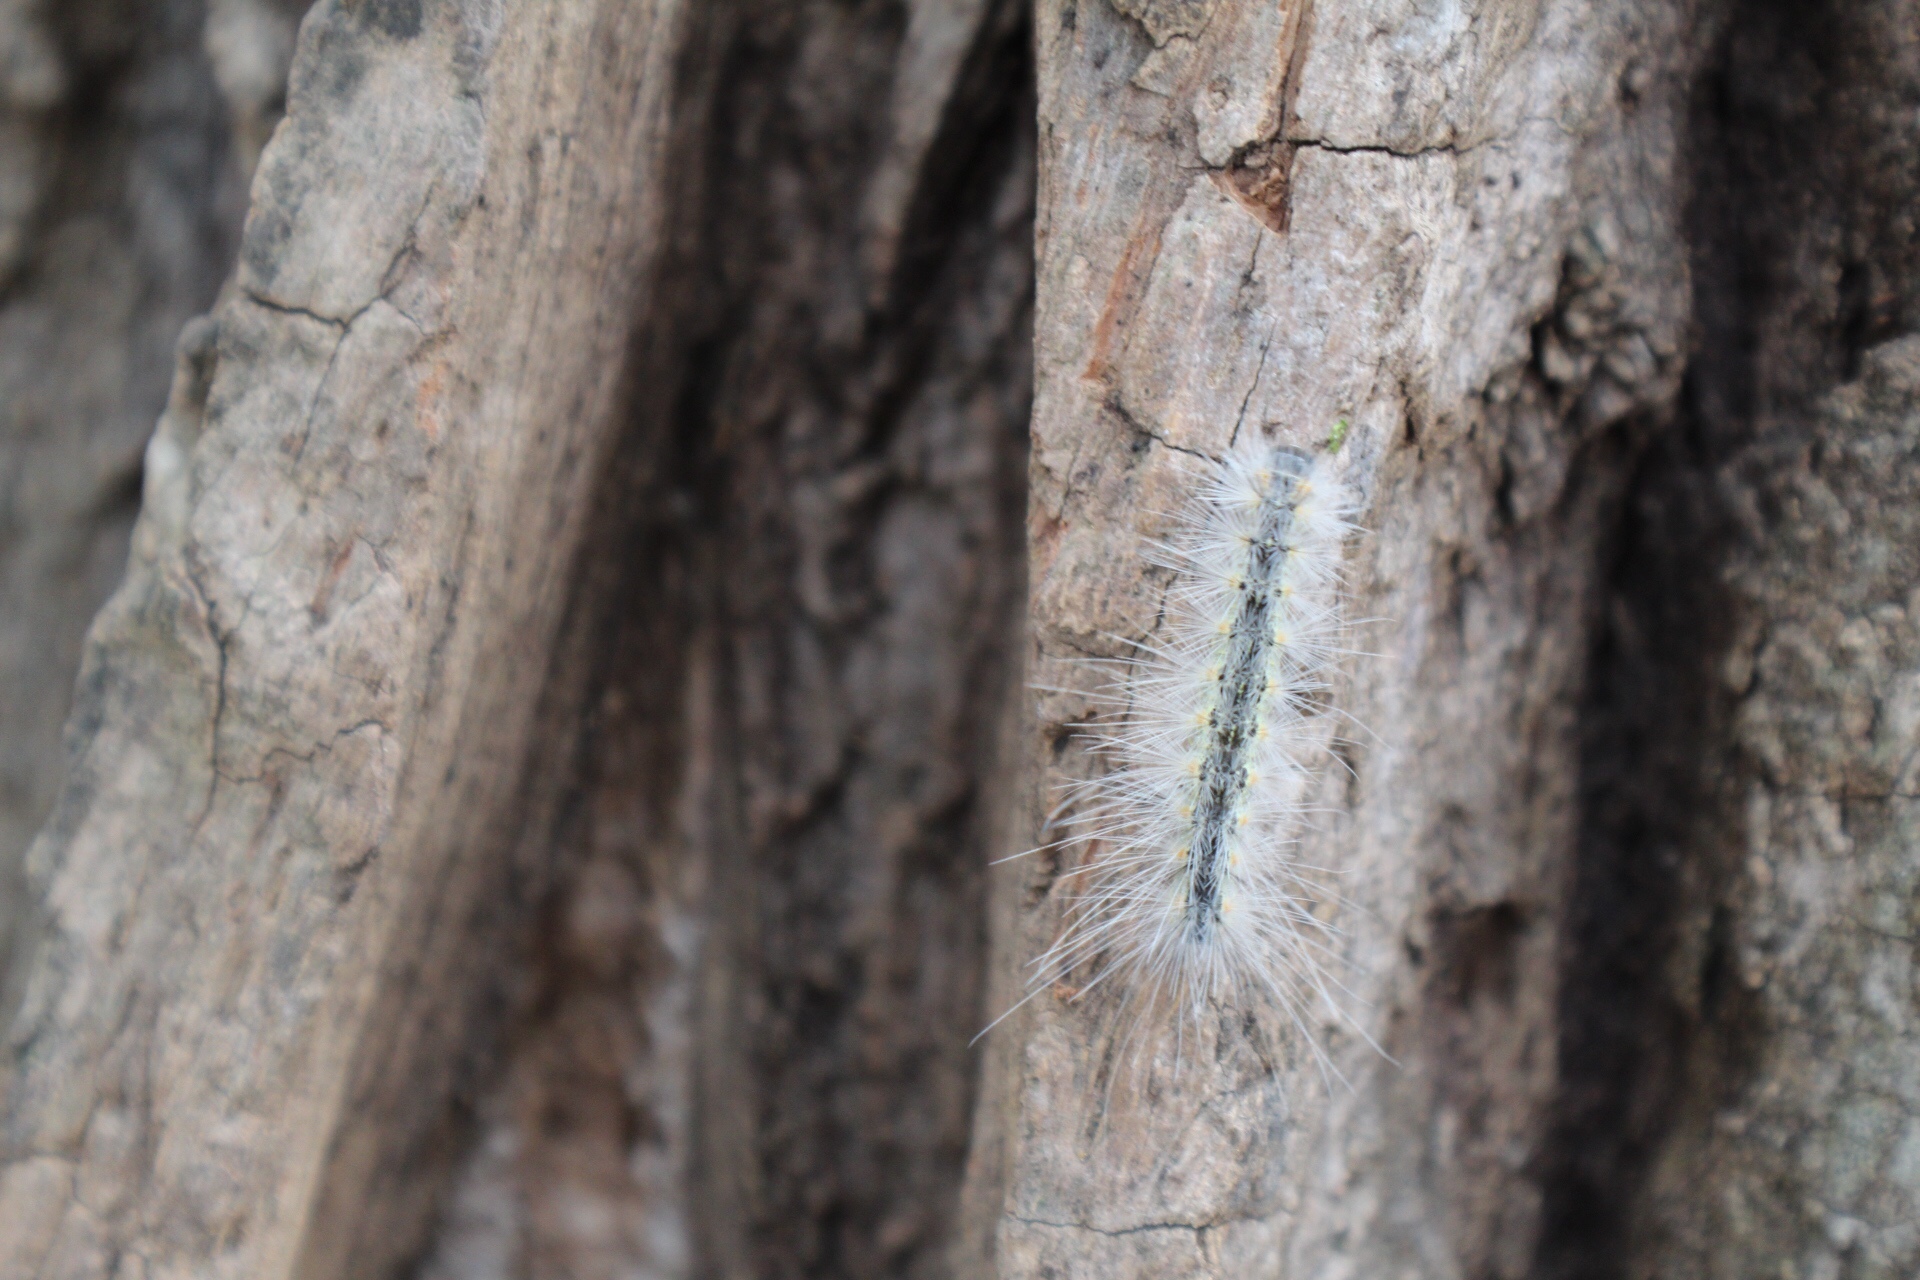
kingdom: Animalia
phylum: Arthropoda
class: Insecta
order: Lepidoptera
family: Erebidae
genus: Hyphantria
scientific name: Hyphantria cunea
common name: American white moth
